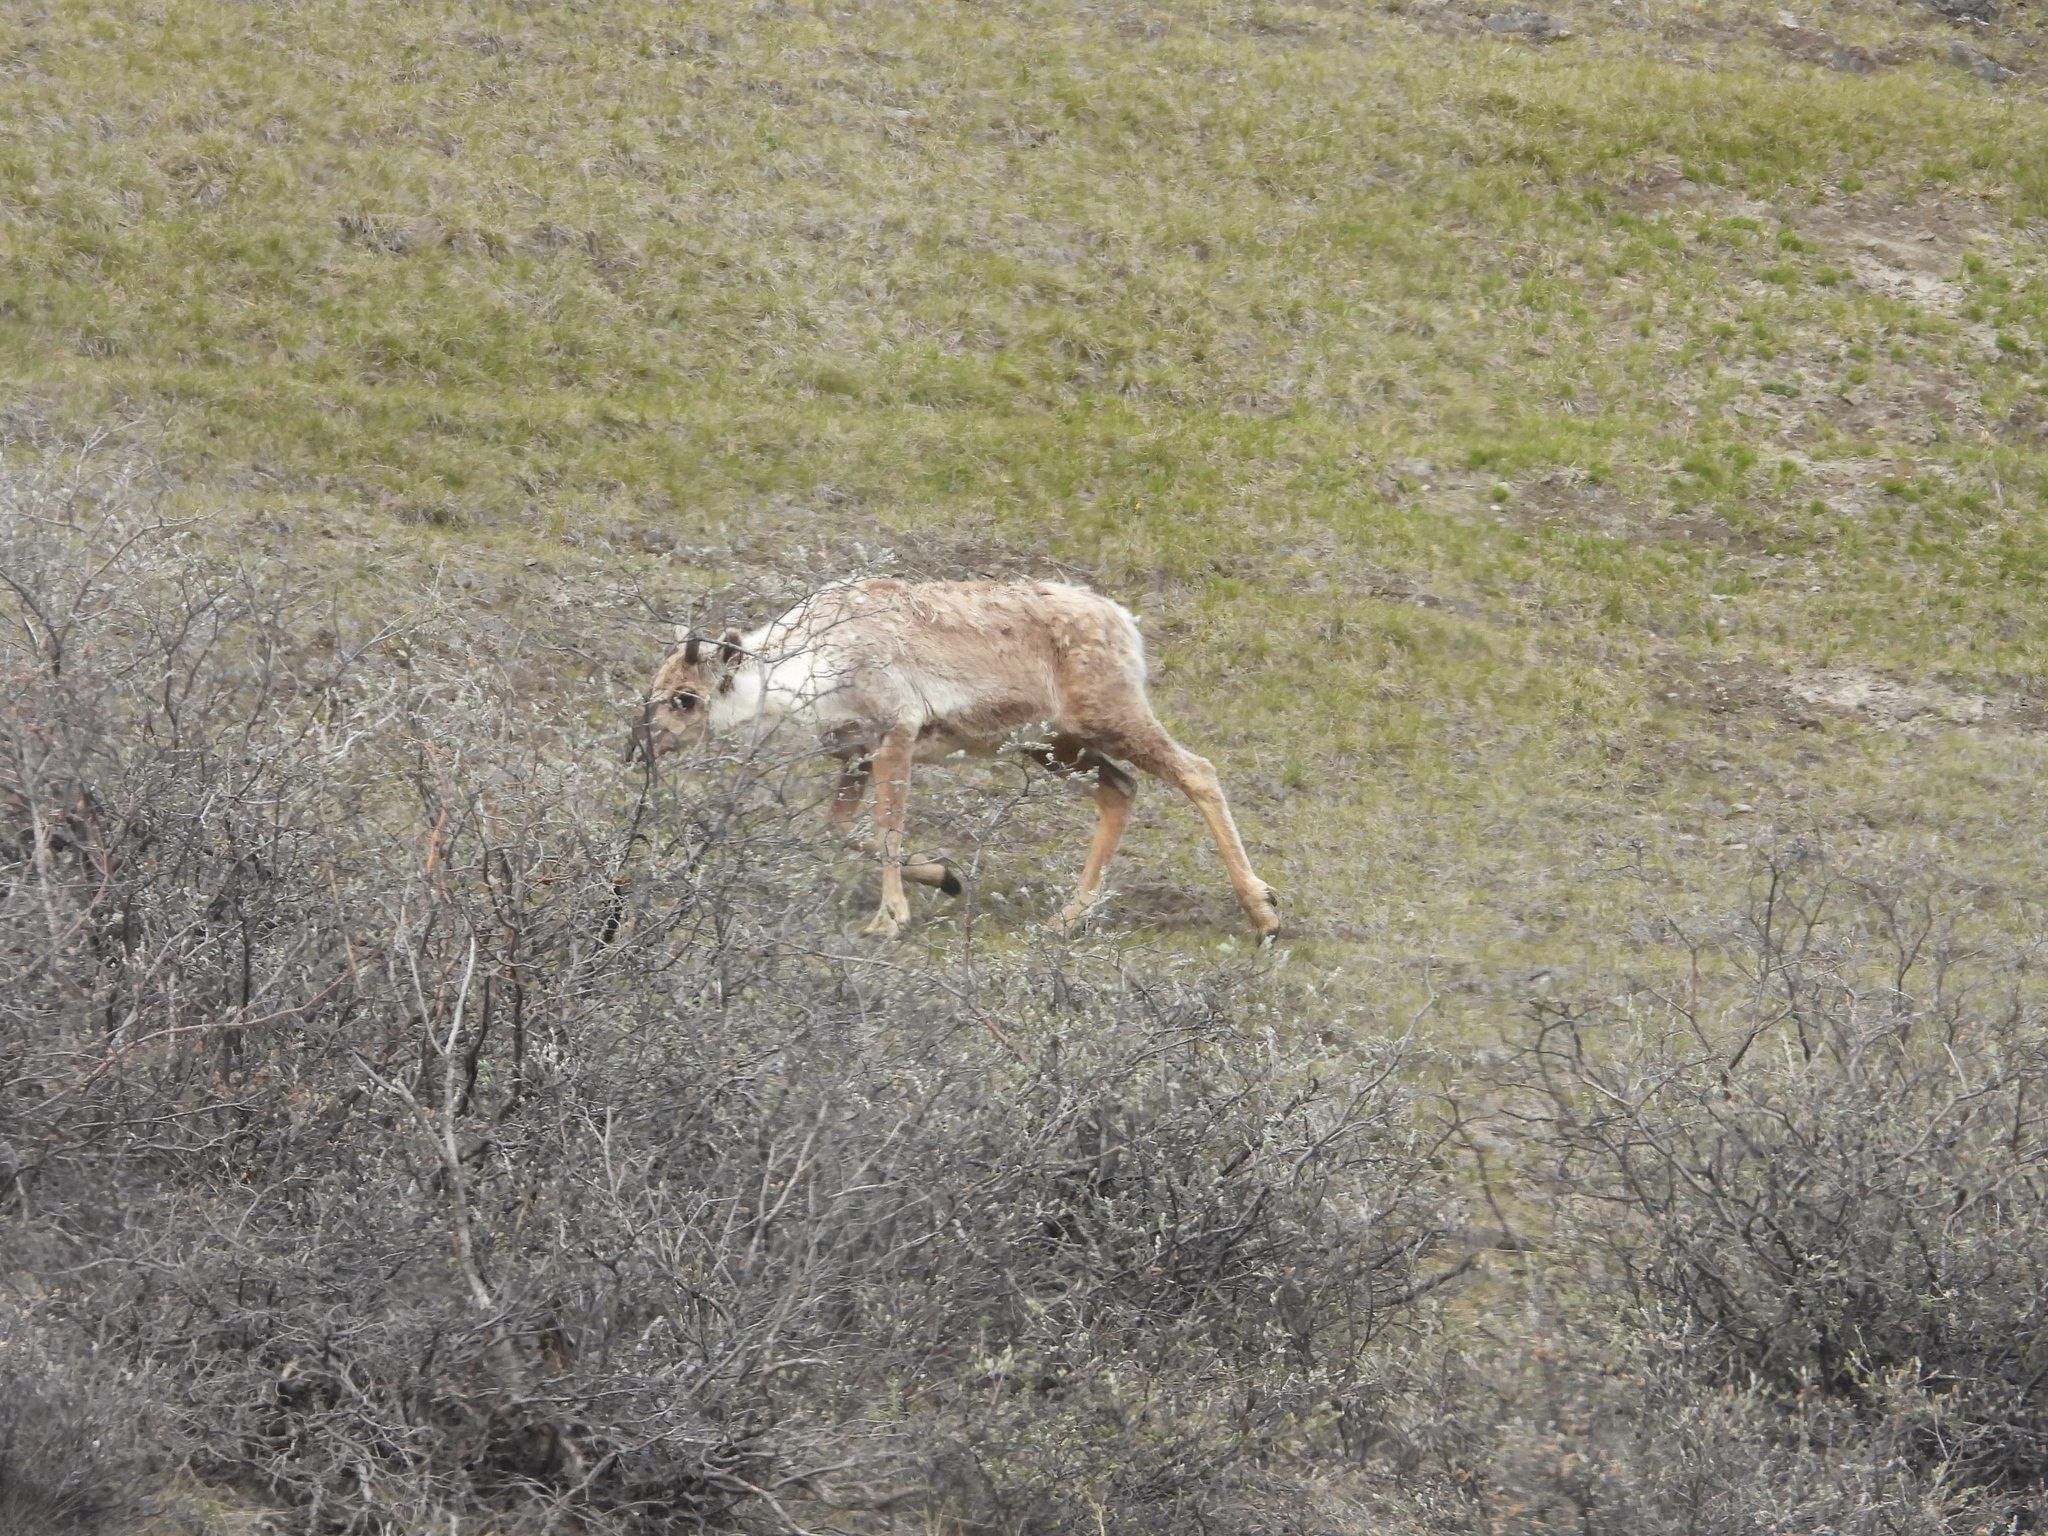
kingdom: Animalia
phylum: Chordata
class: Mammalia
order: Artiodactyla
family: Cervidae
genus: Rangifer
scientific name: Rangifer tarandus
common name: Reindeer
